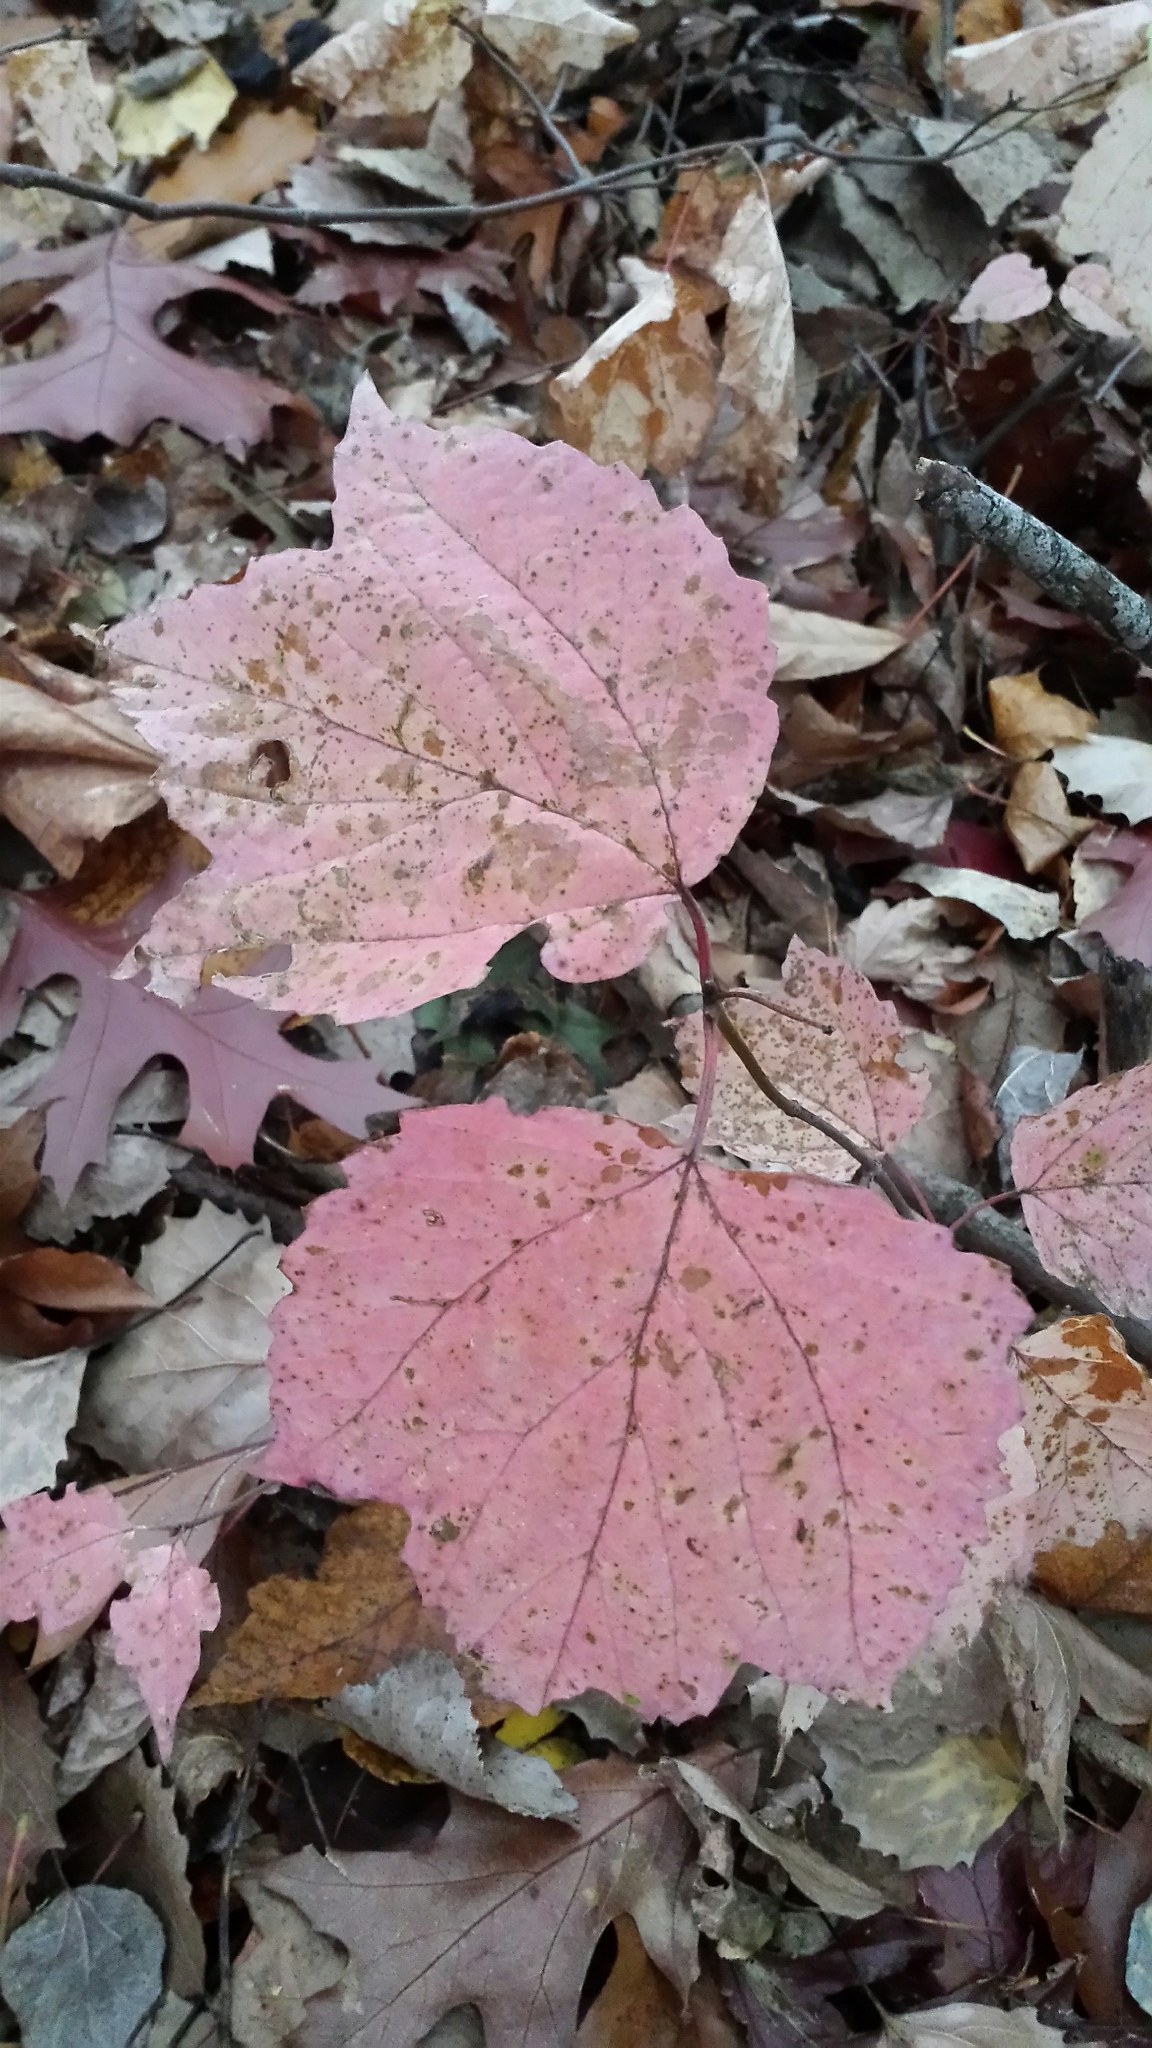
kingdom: Plantae
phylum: Tracheophyta
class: Magnoliopsida
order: Dipsacales
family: Viburnaceae
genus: Viburnum
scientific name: Viburnum acerifolium
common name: Dockmackie
